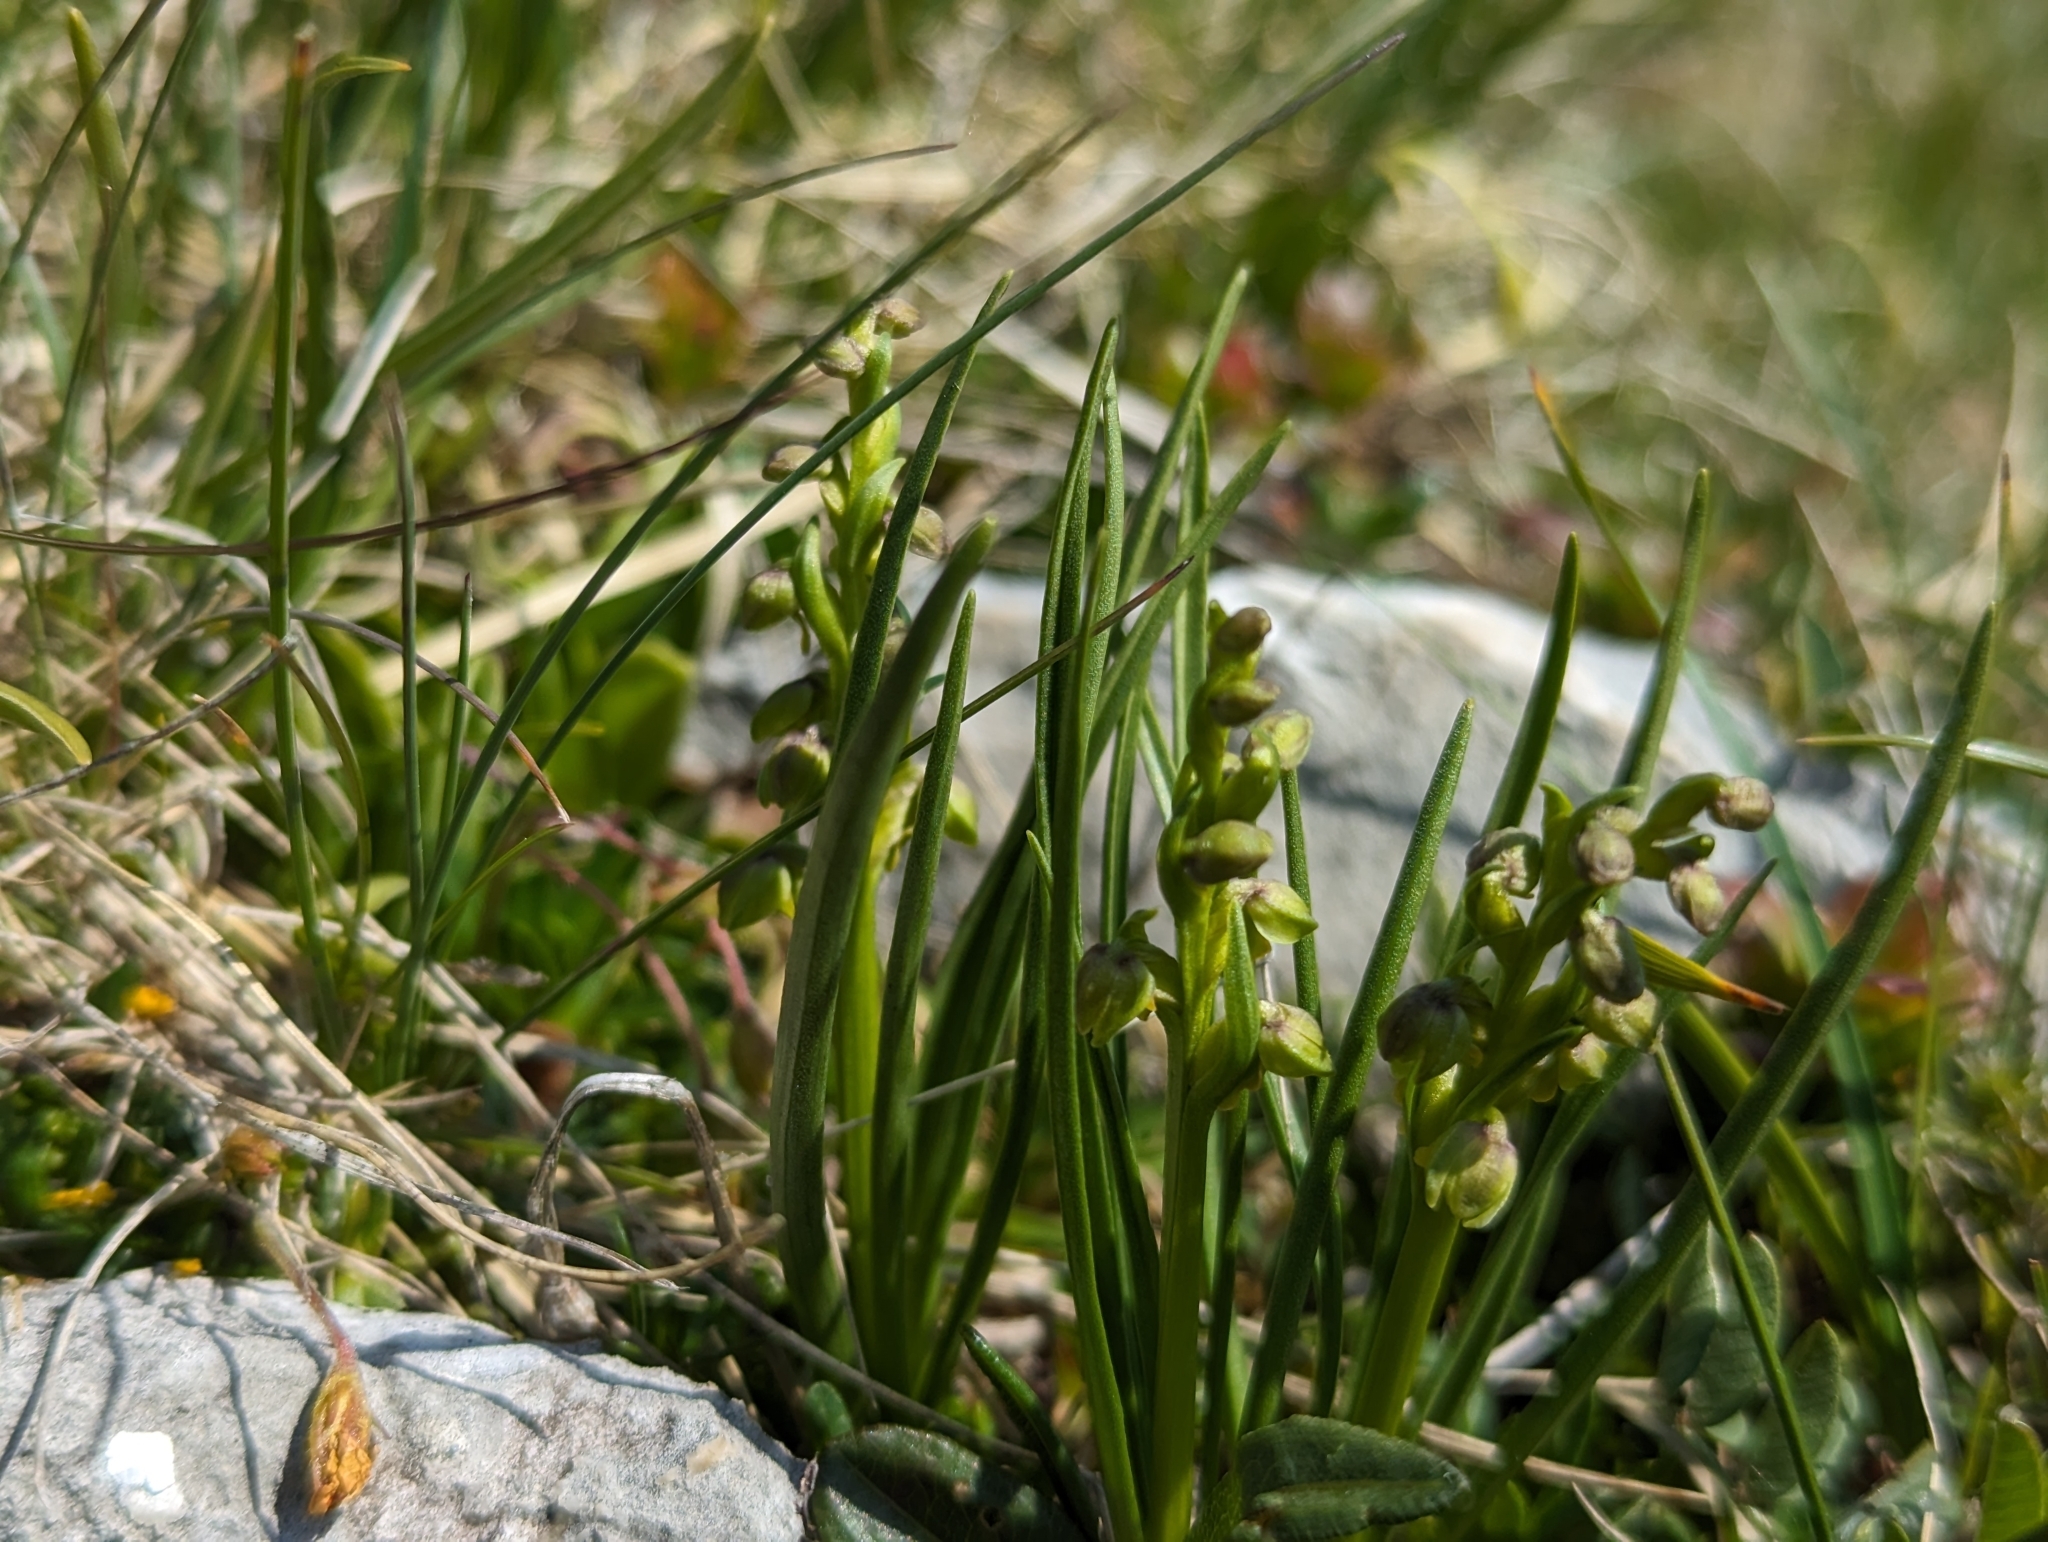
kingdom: Plantae
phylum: Tracheophyta
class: Liliopsida
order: Asparagales
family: Orchidaceae
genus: Chamorchis
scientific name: Chamorchis alpina
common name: Alpine chamorchis
